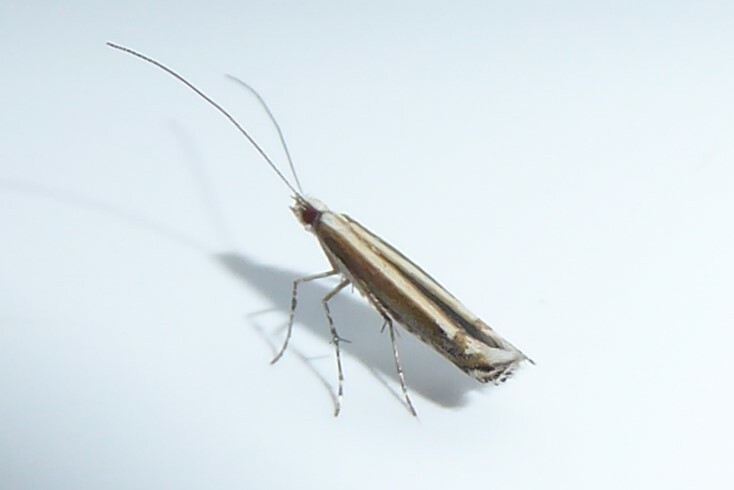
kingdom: Animalia
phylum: Arthropoda
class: Insecta
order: Lepidoptera
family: Gracillariidae
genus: Acrocercops
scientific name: Acrocercops laciniella
